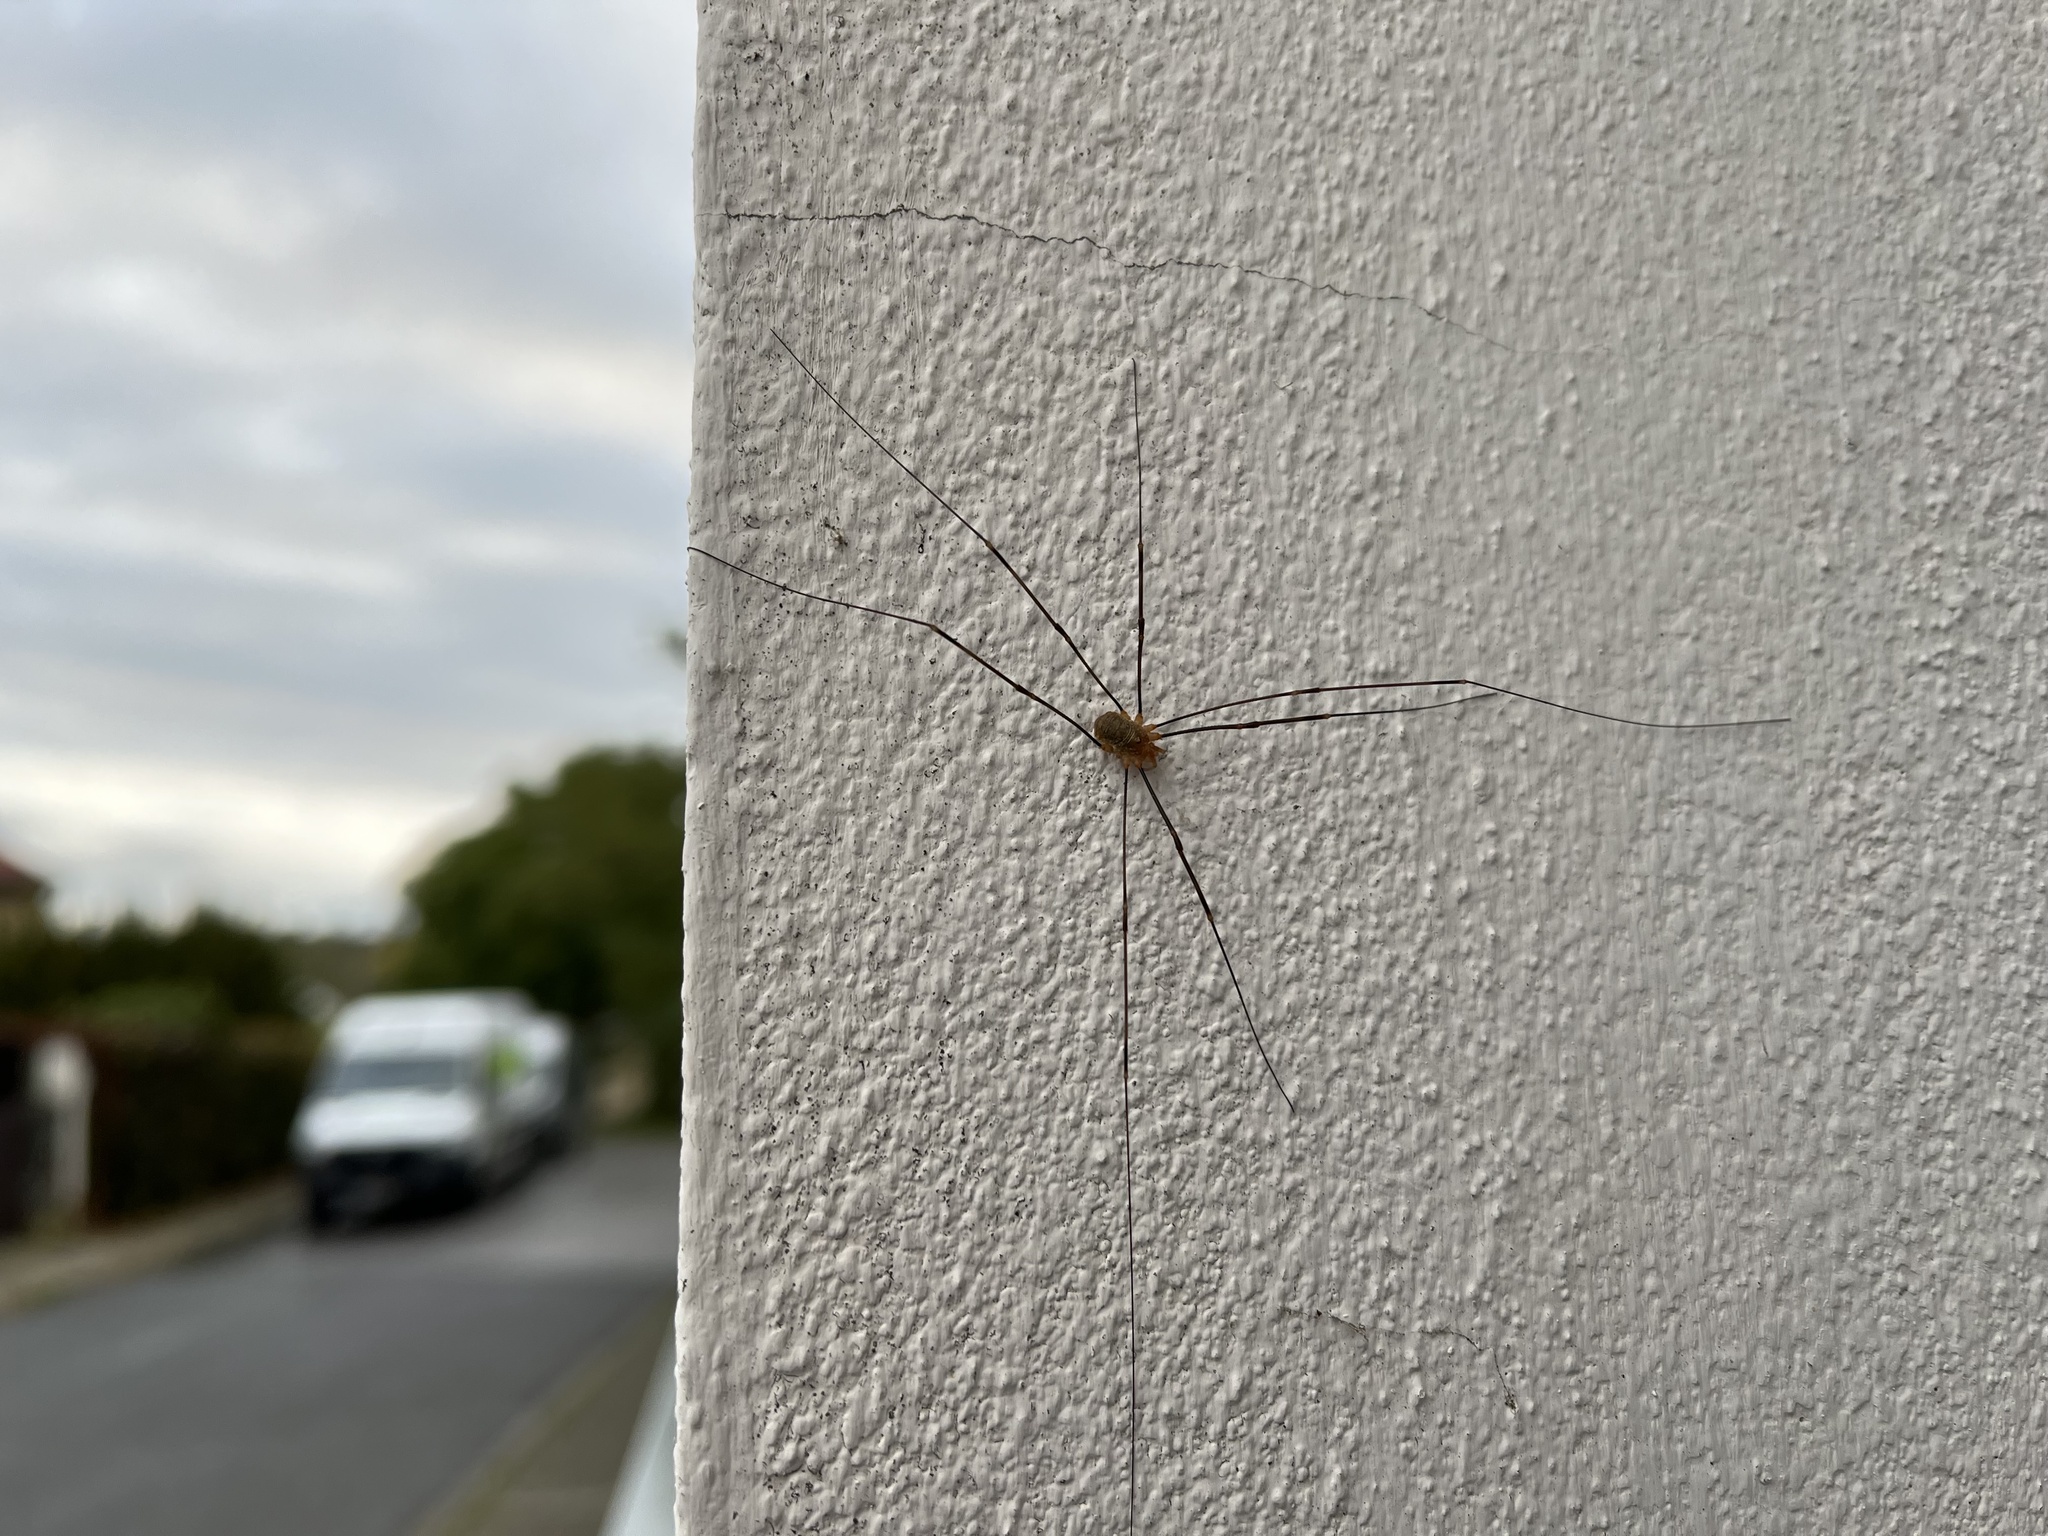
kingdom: Animalia
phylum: Arthropoda
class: Arachnida
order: Opiliones
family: Phalangiidae
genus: Opilio
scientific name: Opilio canestrinii
